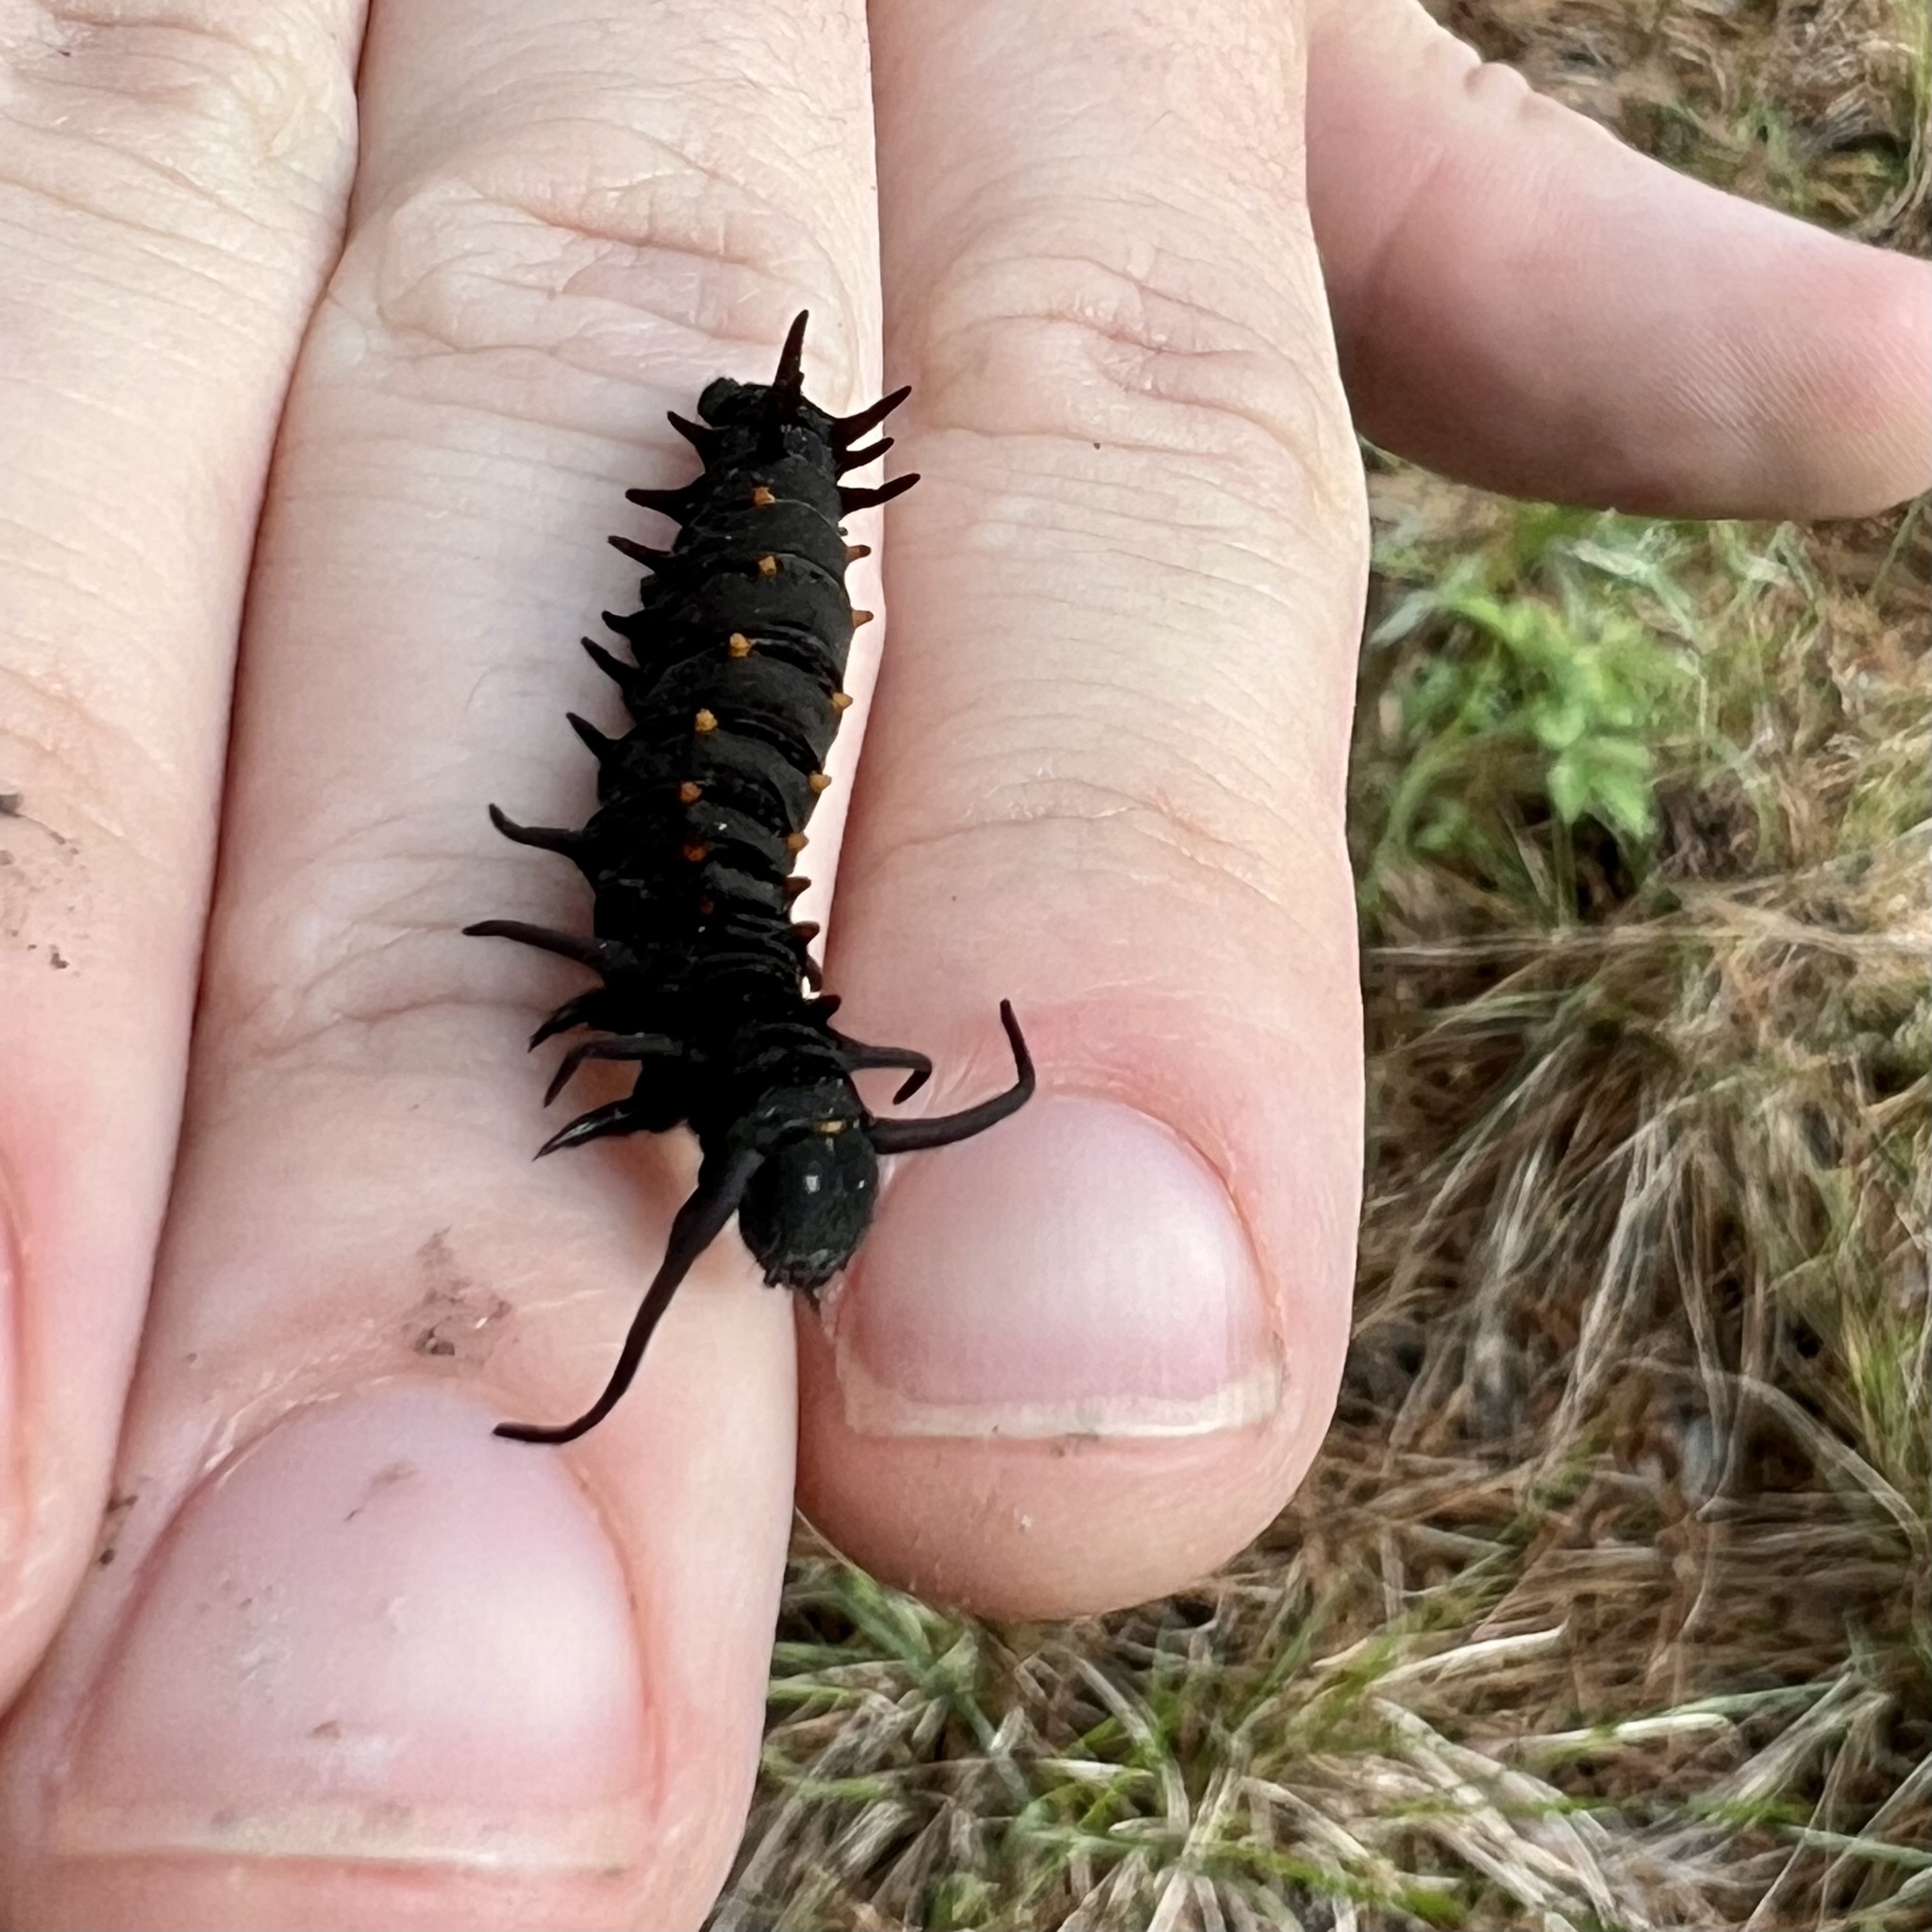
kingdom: Animalia
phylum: Arthropoda
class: Insecta
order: Lepidoptera
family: Papilionidae
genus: Battus
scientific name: Battus philenor
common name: Pipevine swallowtail
